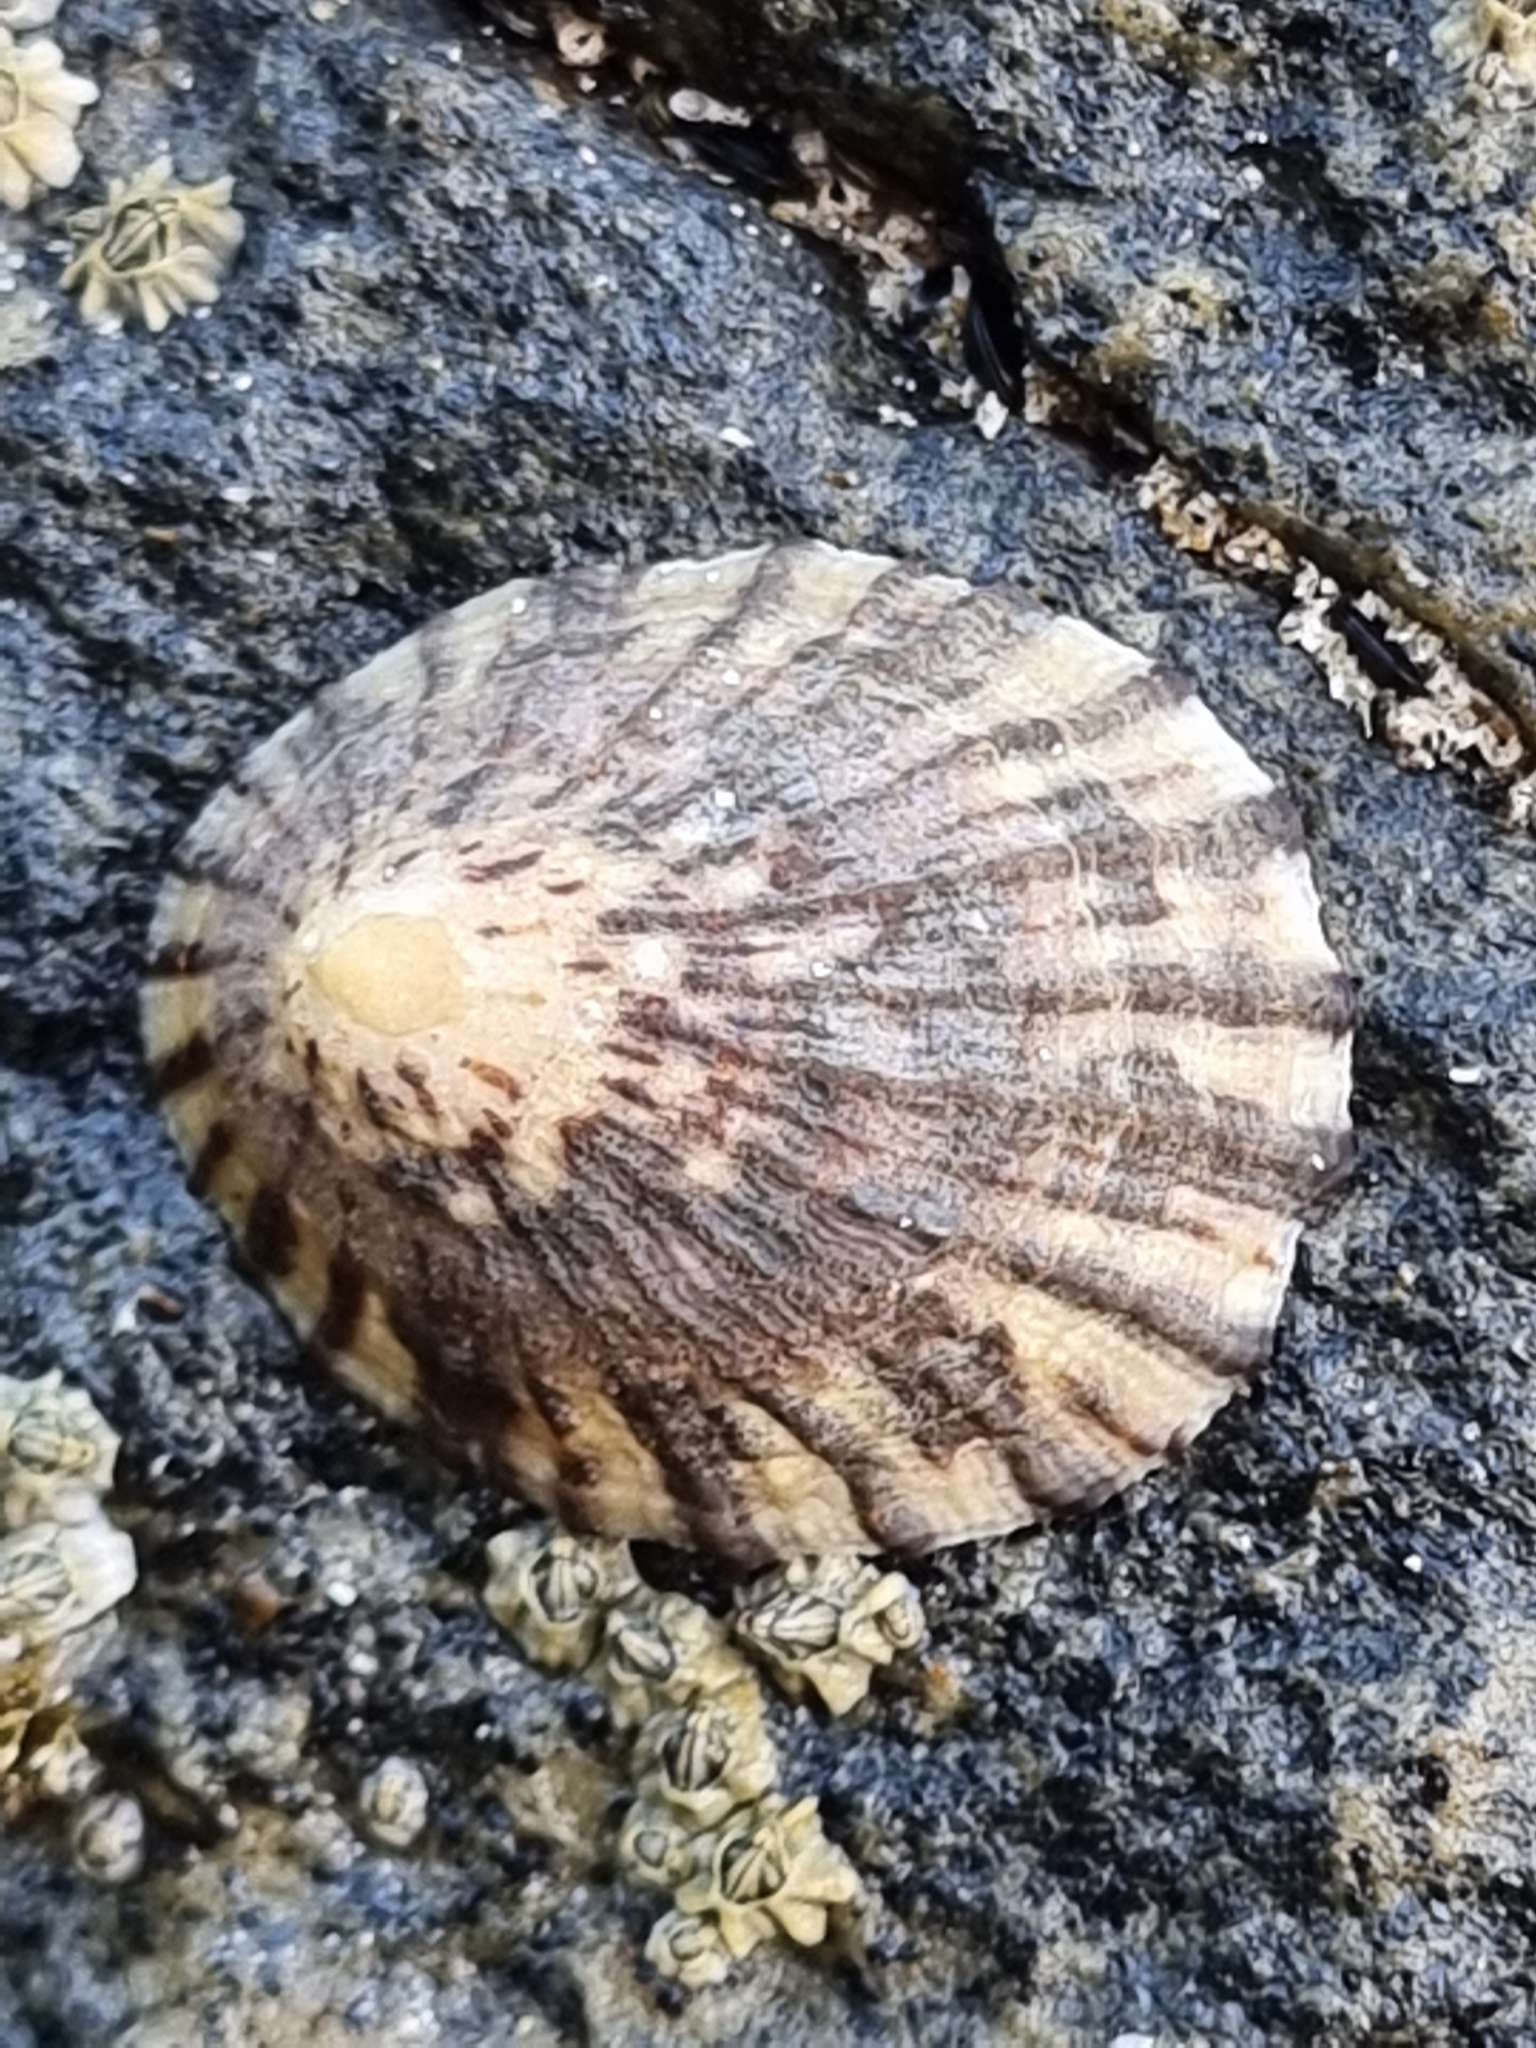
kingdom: Animalia
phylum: Mollusca
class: Gastropoda
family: Nacellidae
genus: Cellana
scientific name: Cellana radians
